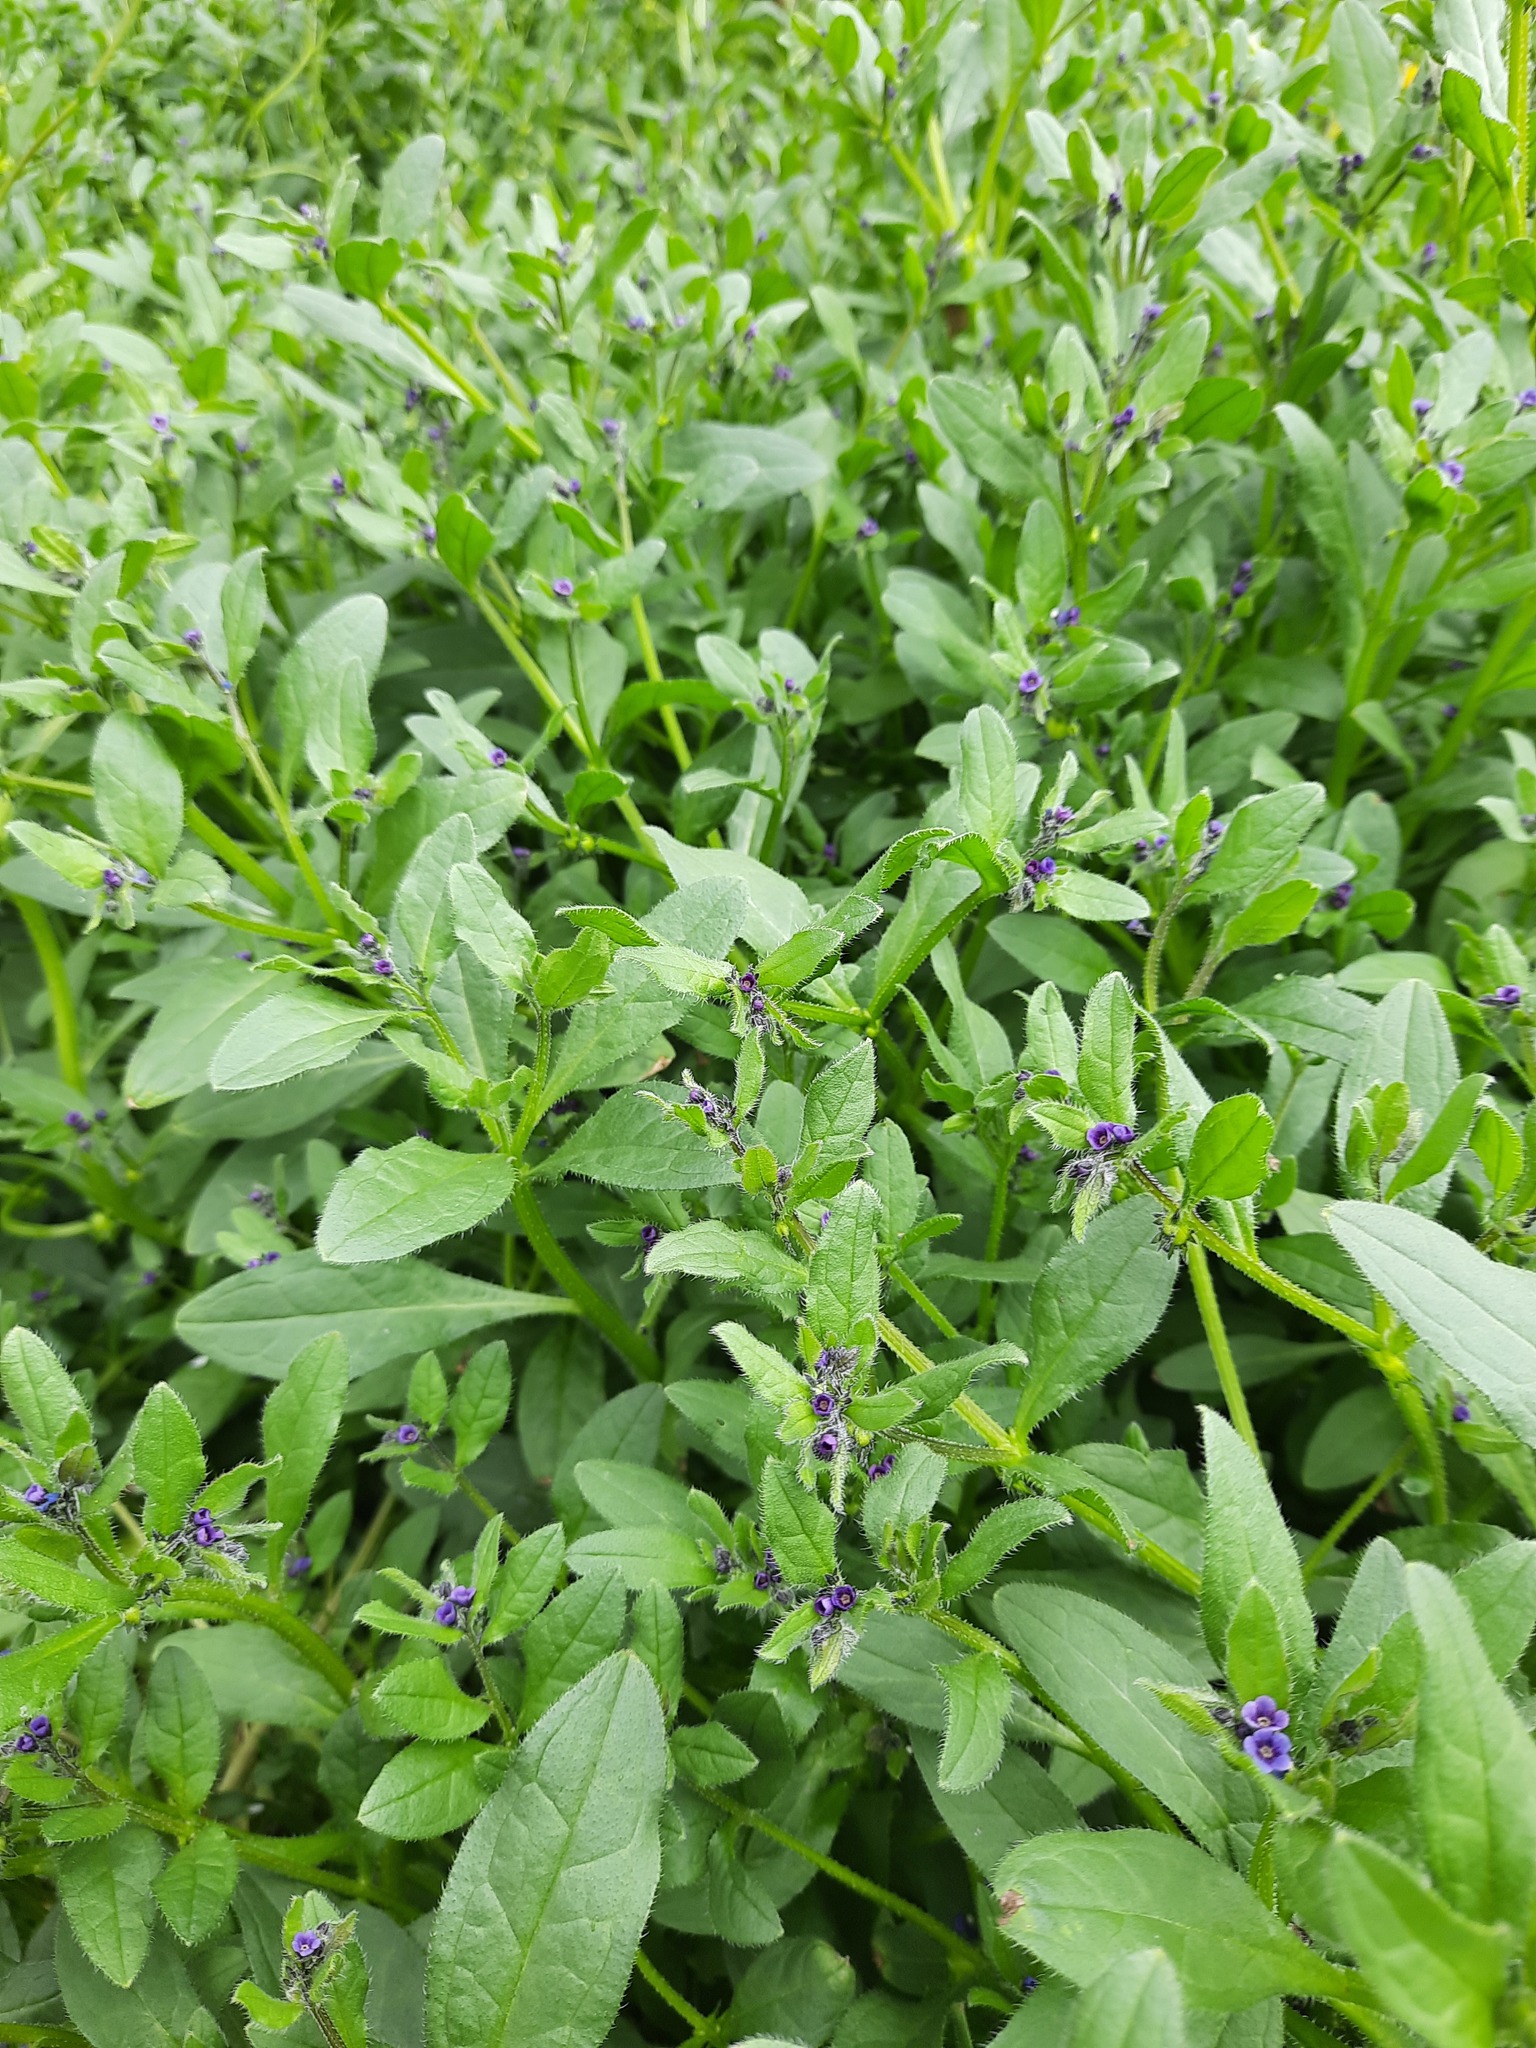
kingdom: Plantae
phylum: Tracheophyta
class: Magnoliopsida
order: Boraginales
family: Boraginaceae
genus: Asperugo
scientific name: Asperugo procumbens
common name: Madwort
